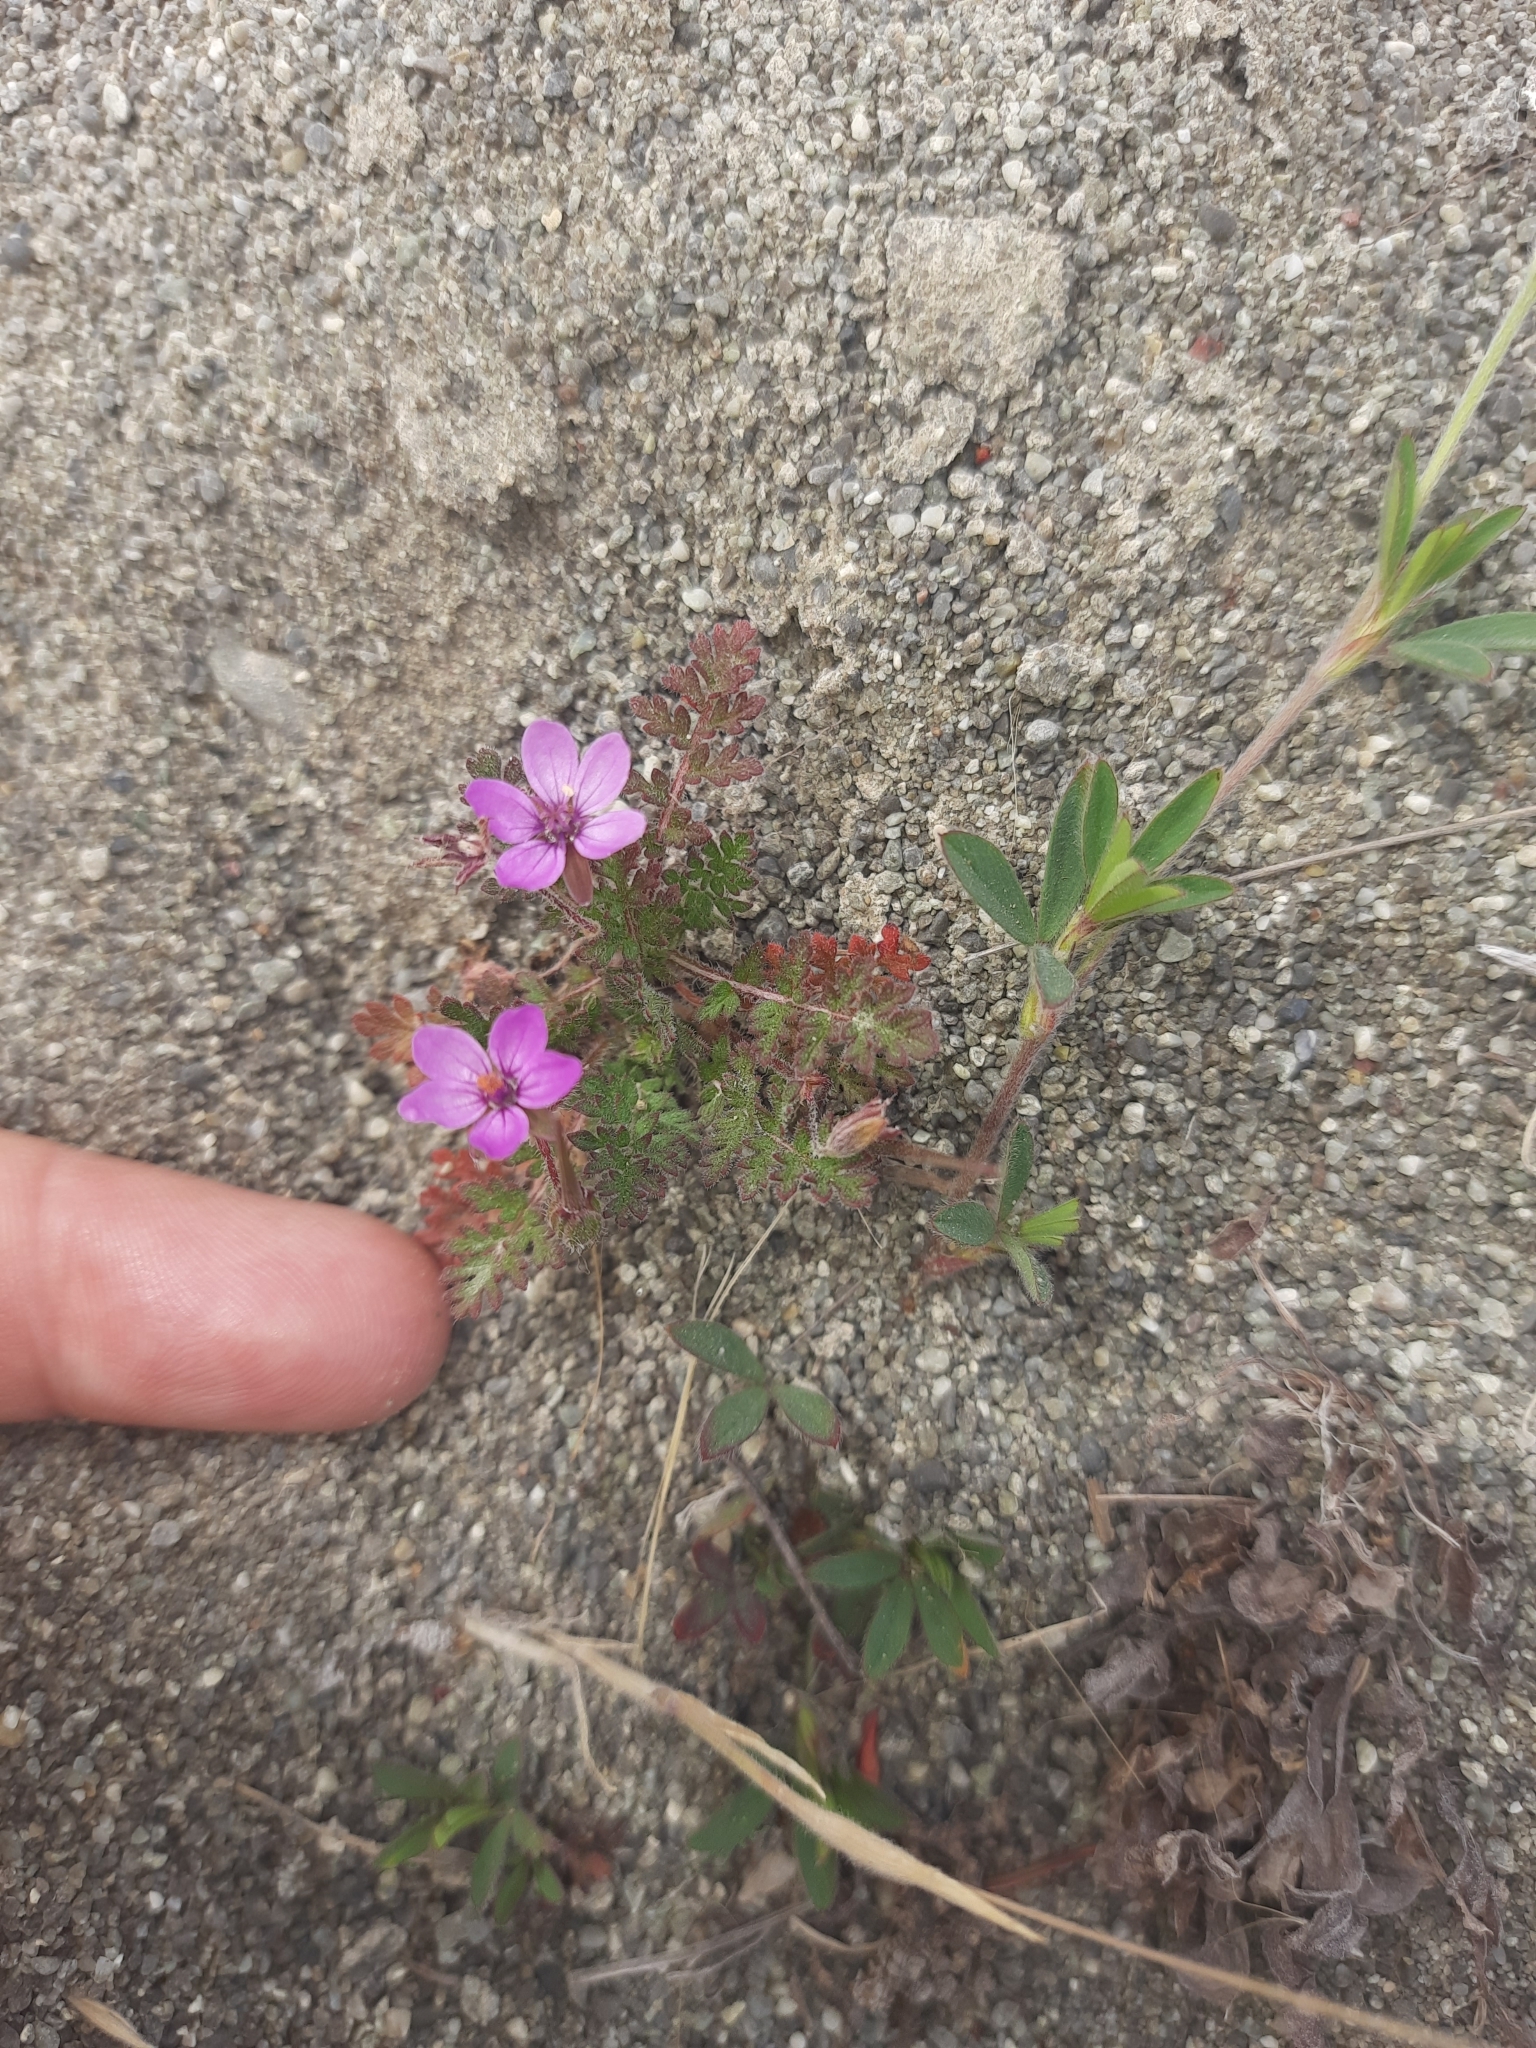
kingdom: Plantae
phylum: Tracheophyta
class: Magnoliopsida
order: Geraniales
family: Geraniaceae
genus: Erodium
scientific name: Erodium cicutarium
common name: Common stork's-bill
